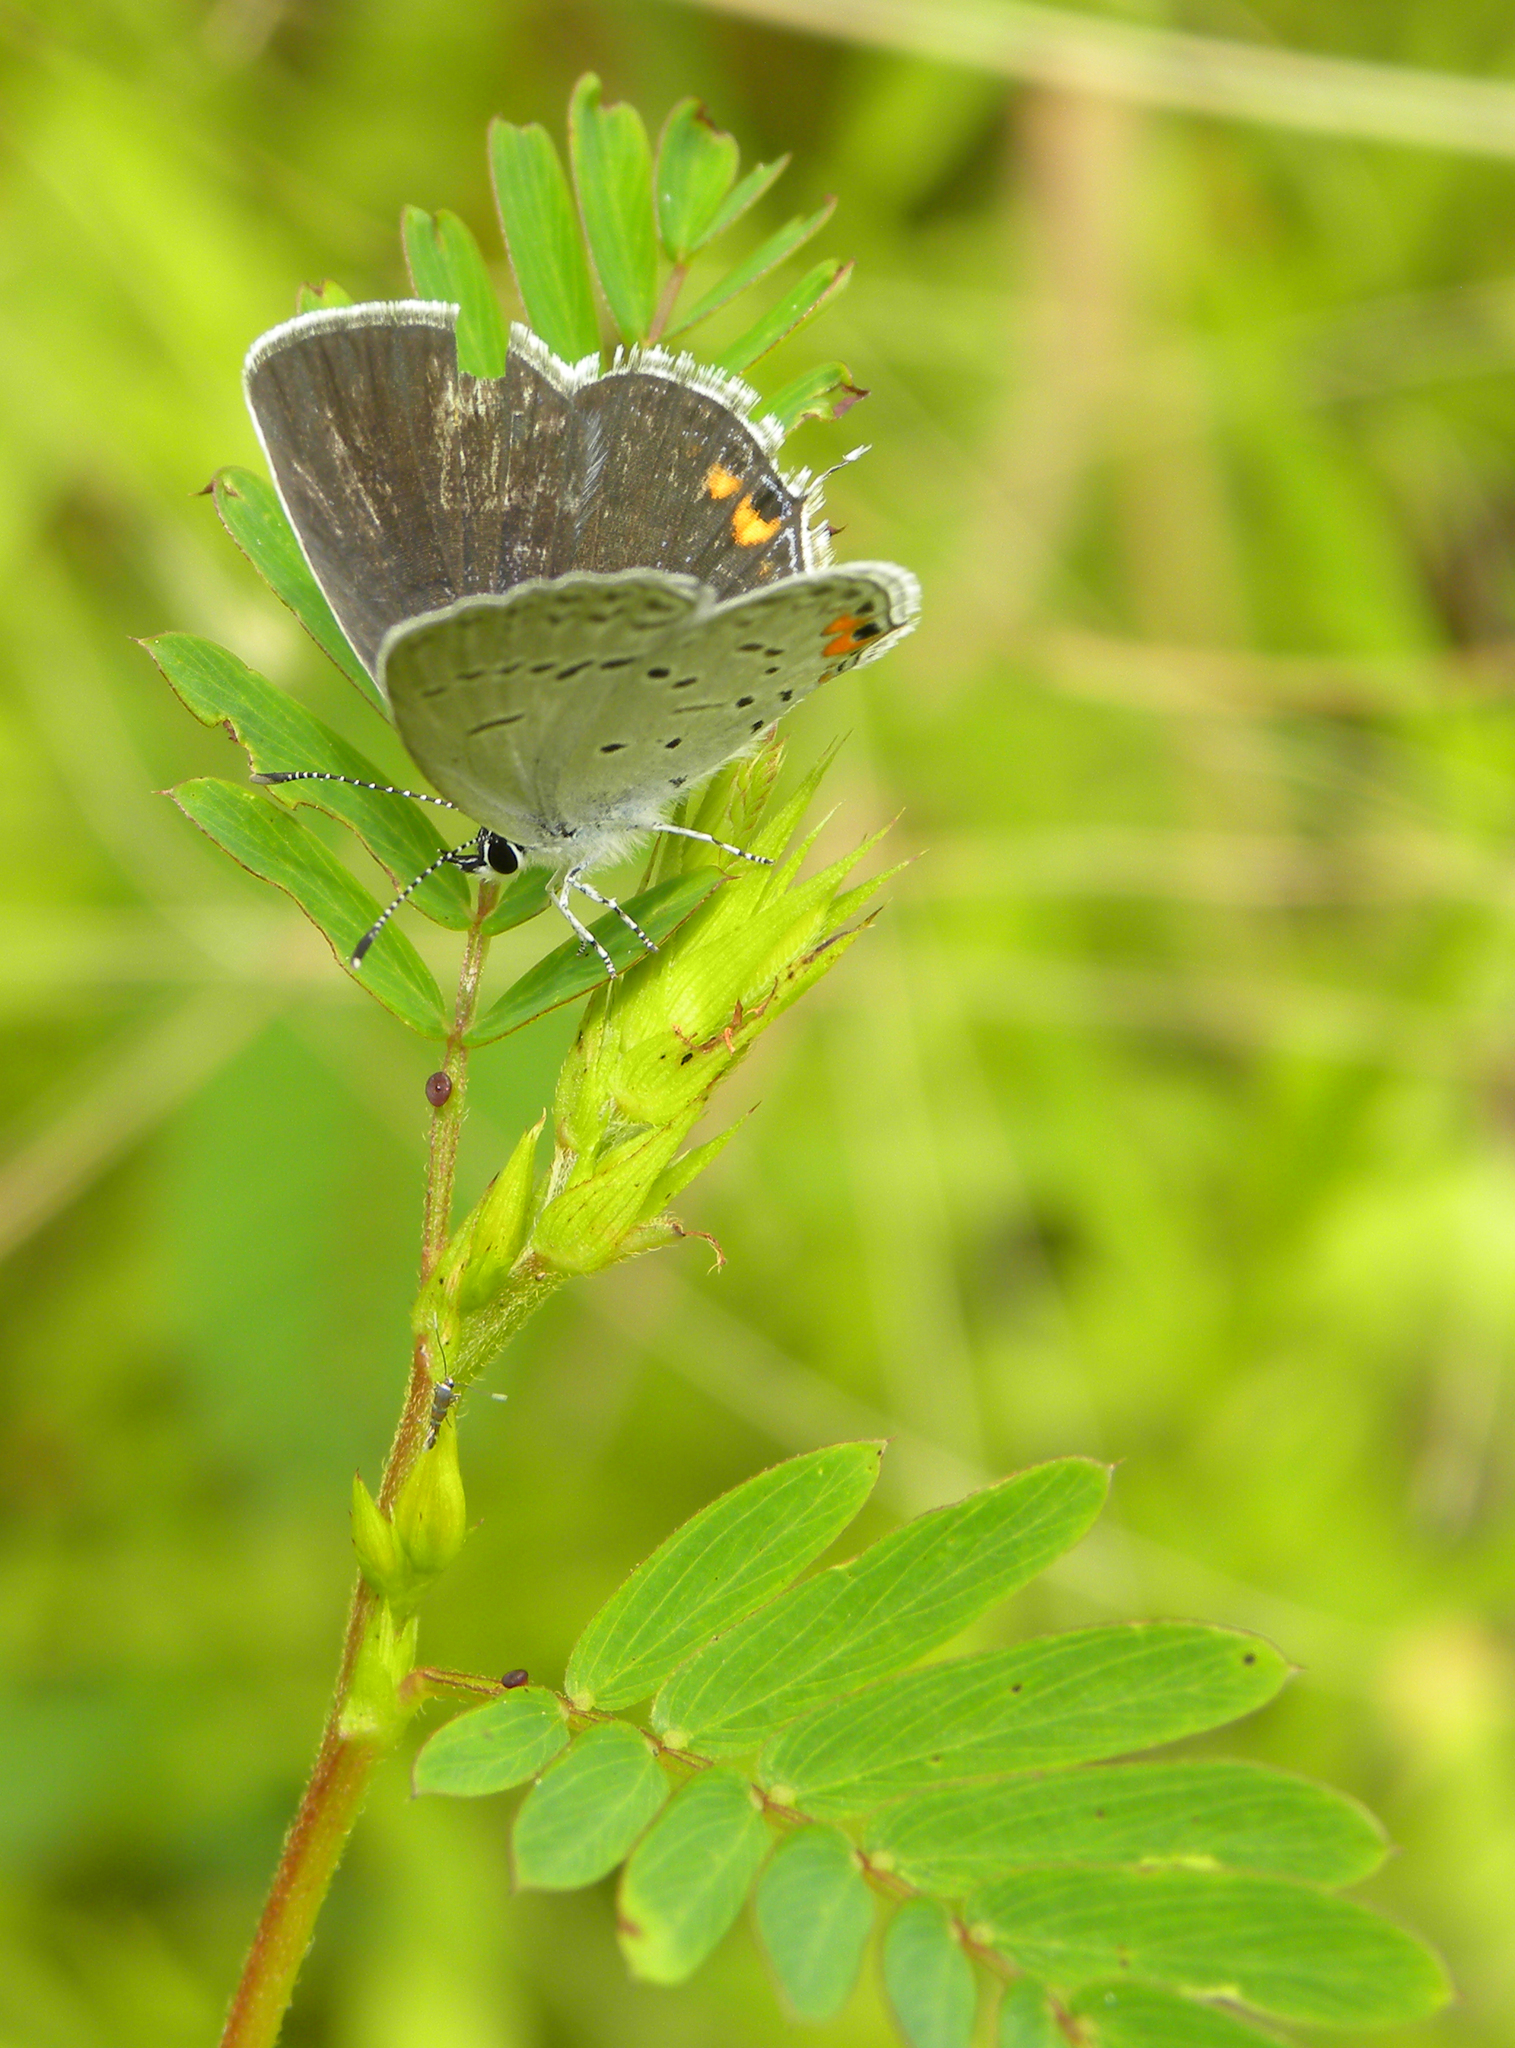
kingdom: Animalia
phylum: Arthropoda
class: Insecta
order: Lepidoptera
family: Lycaenidae
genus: Elkalyce
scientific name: Elkalyce comyntas
